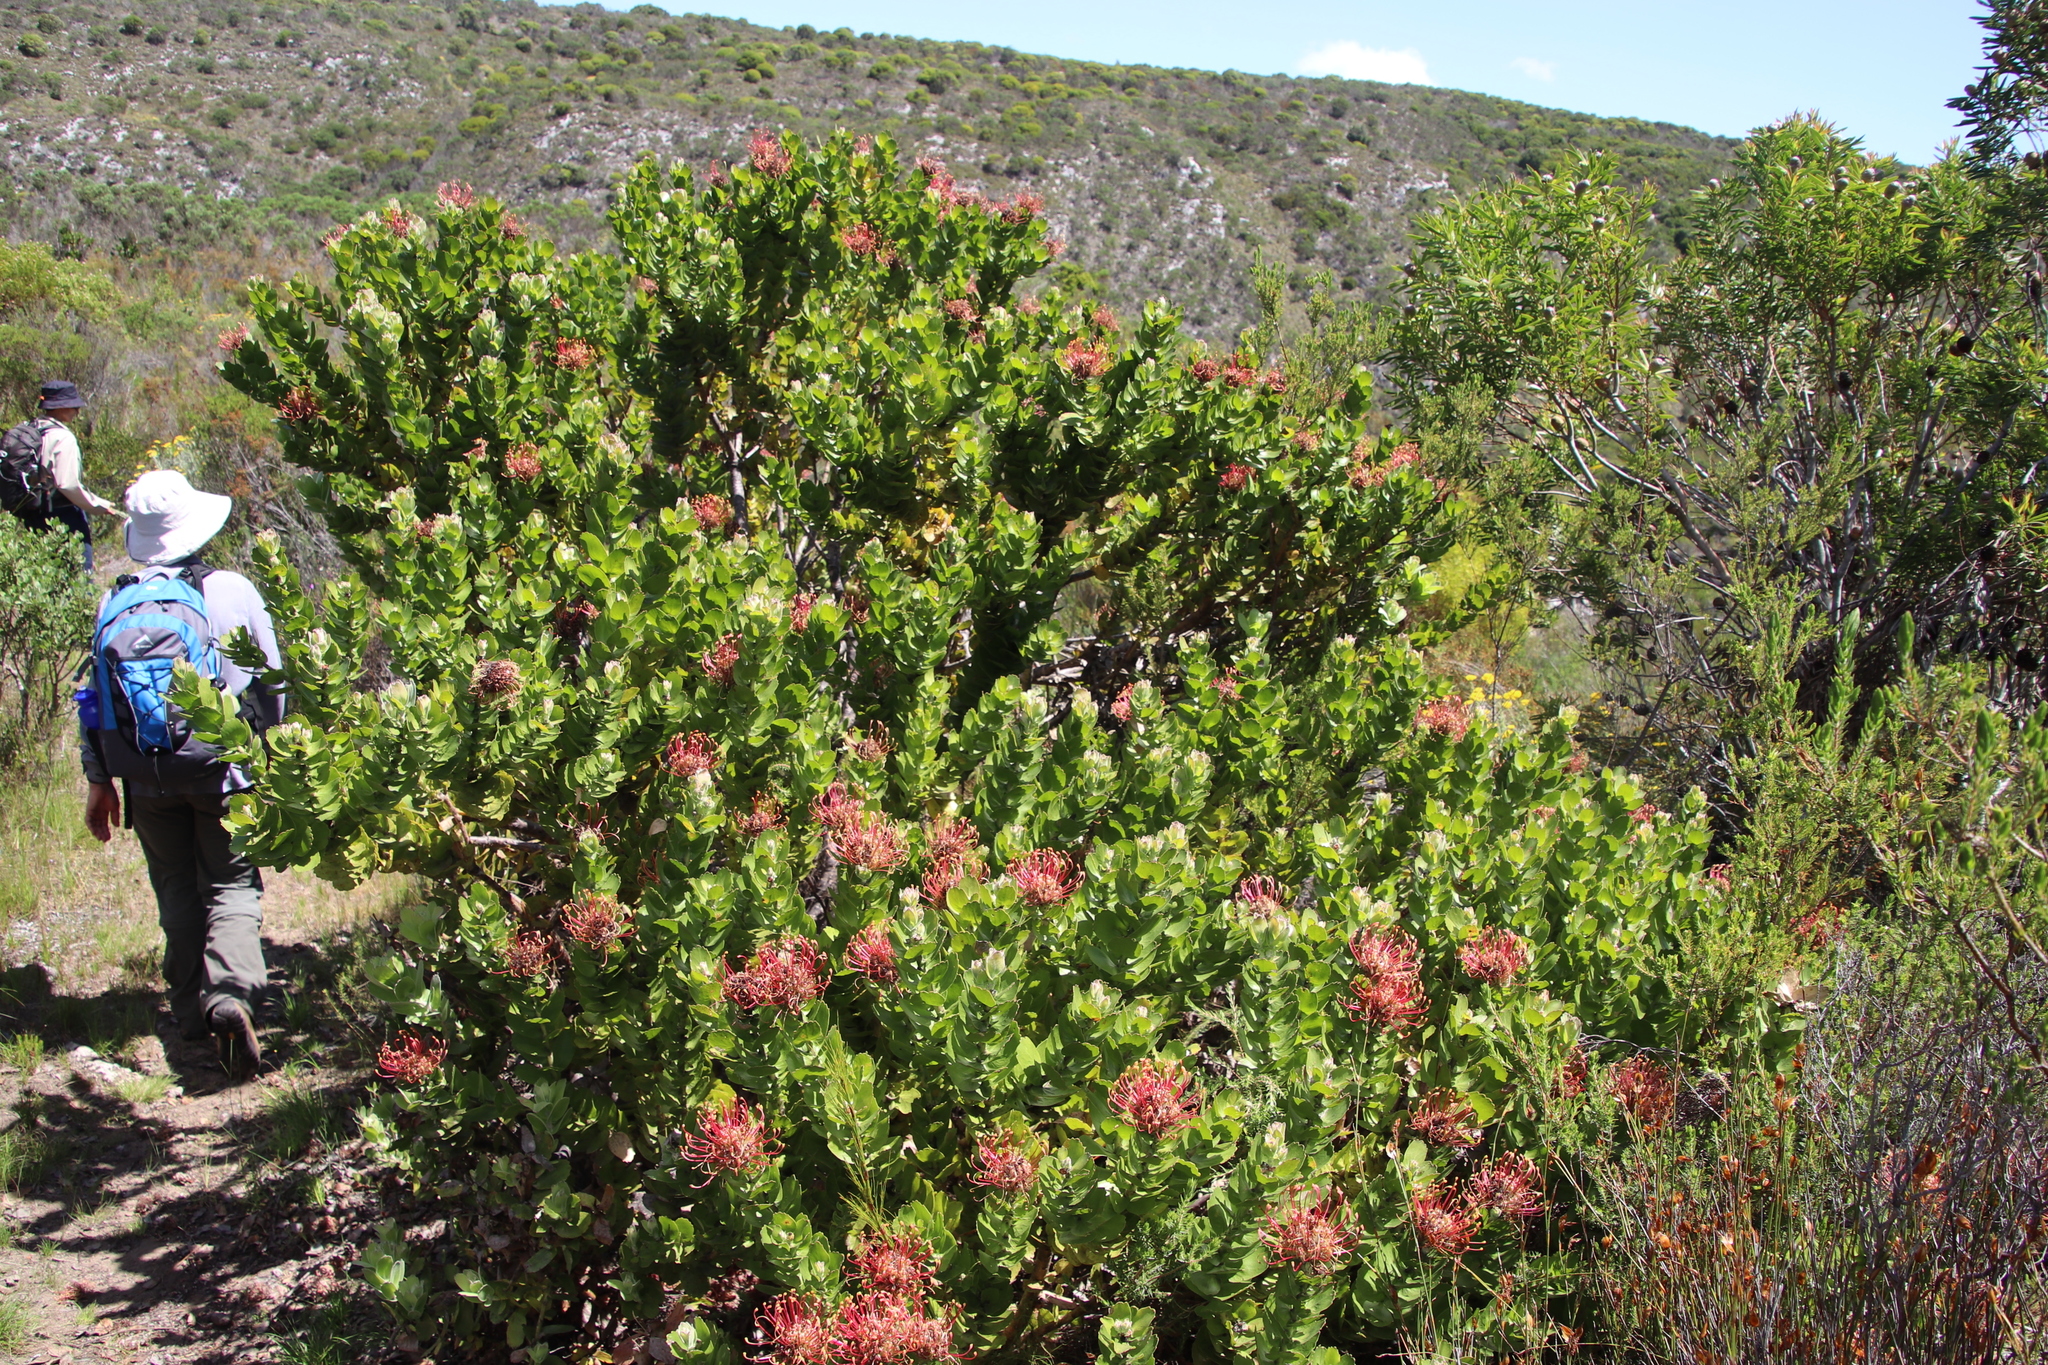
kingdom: Plantae
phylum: Tracheophyta
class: Magnoliopsida
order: Proteales
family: Proteaceae
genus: Leucospermum
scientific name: Leucospermum patersonii
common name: False tree pincushion
